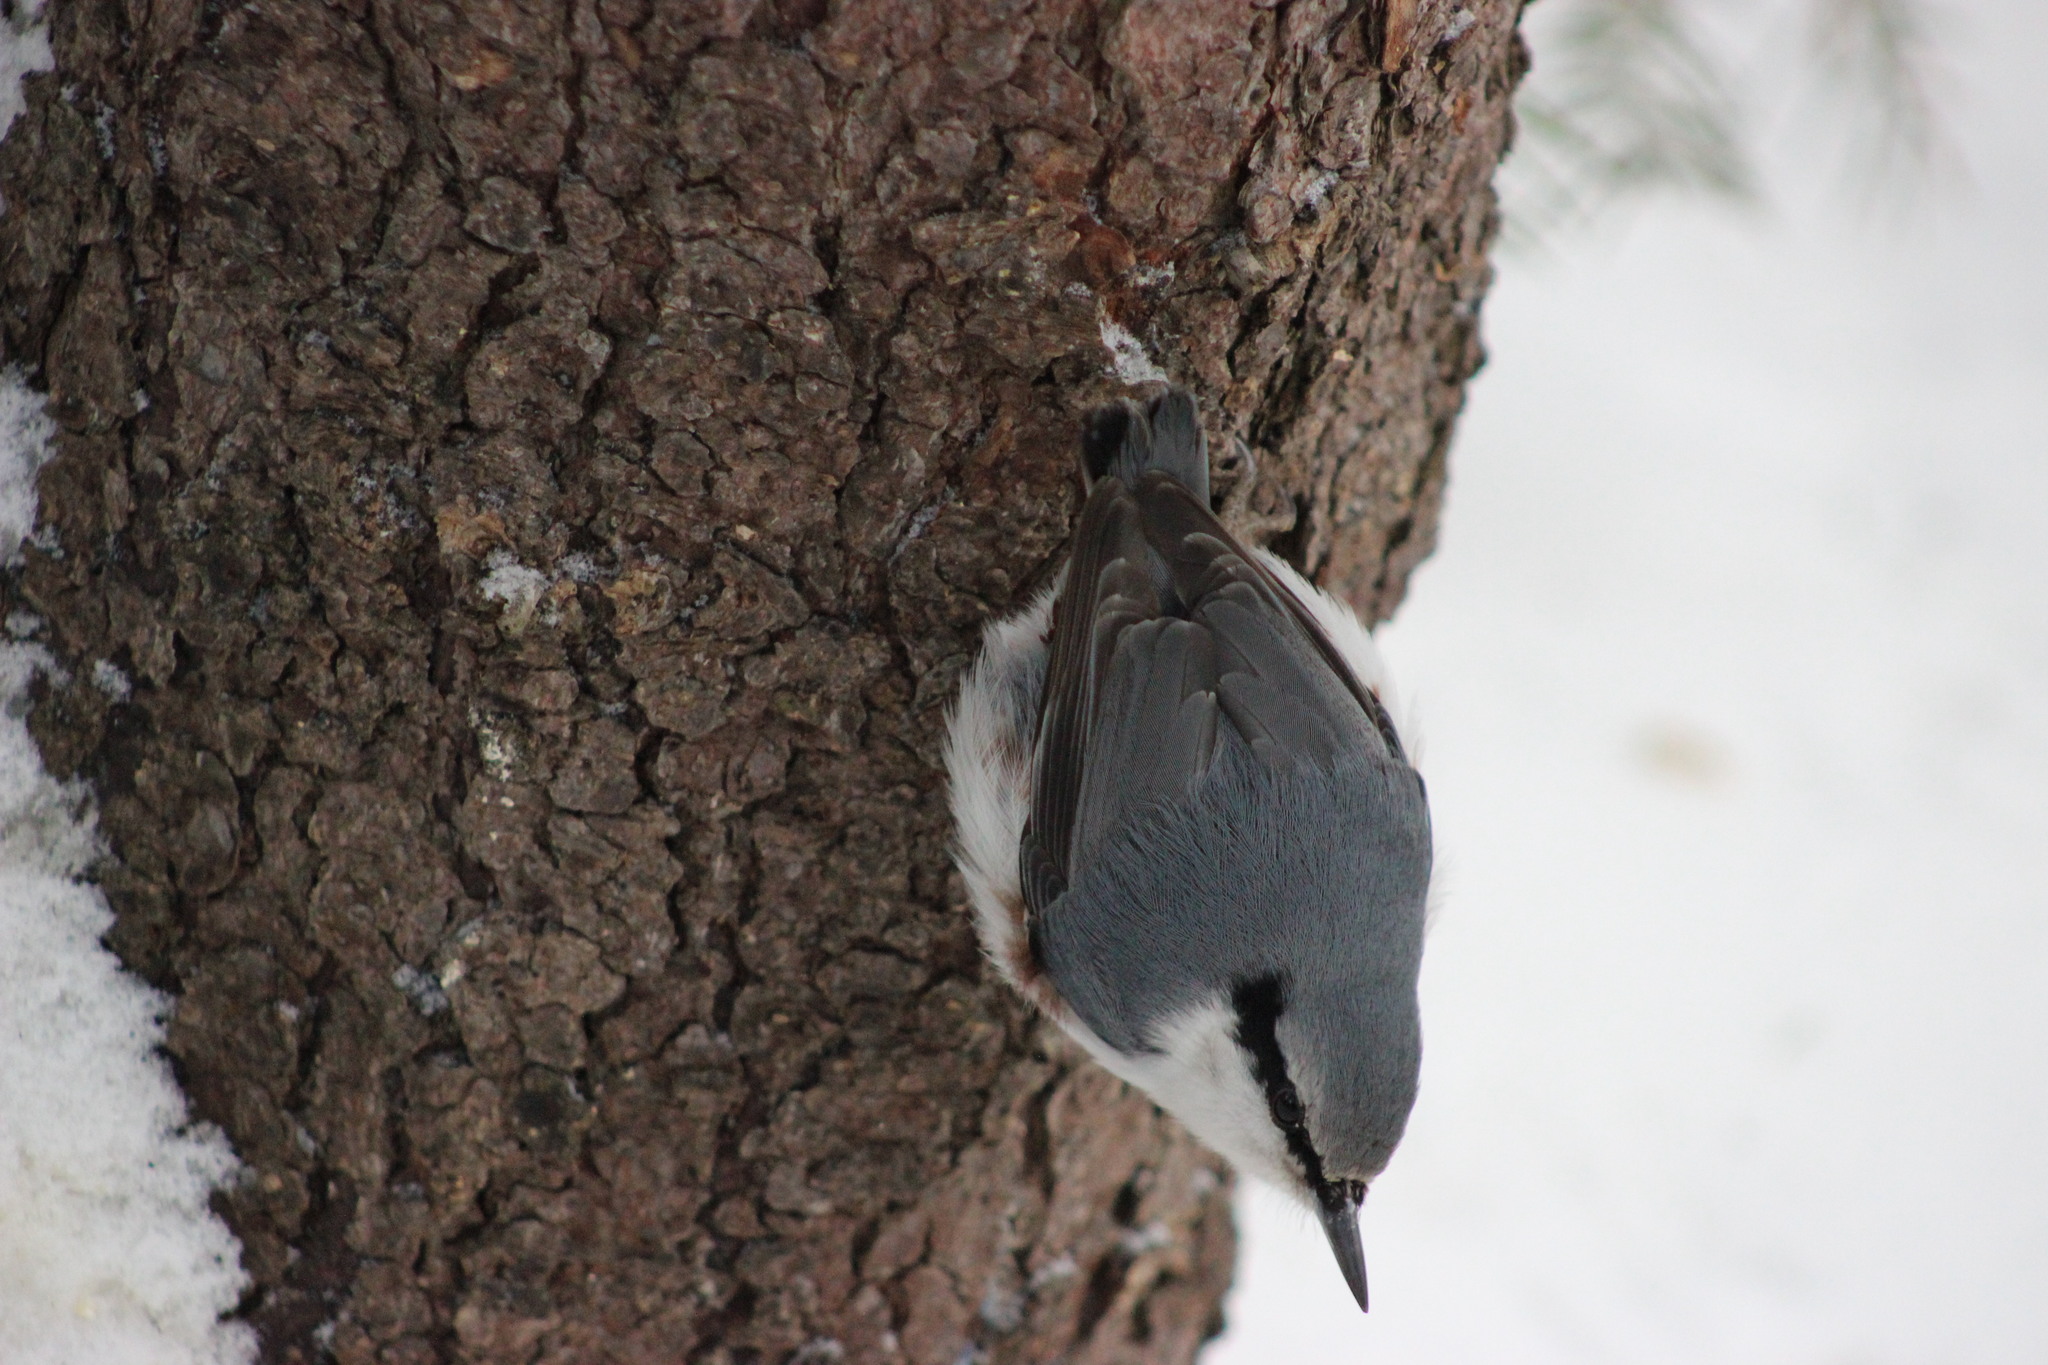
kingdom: Animalia
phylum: Chordata
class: Aves
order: Passeriformes
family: Sittidae
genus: Sitta
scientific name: Sitta europaea
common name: Eurasian nuthatch
